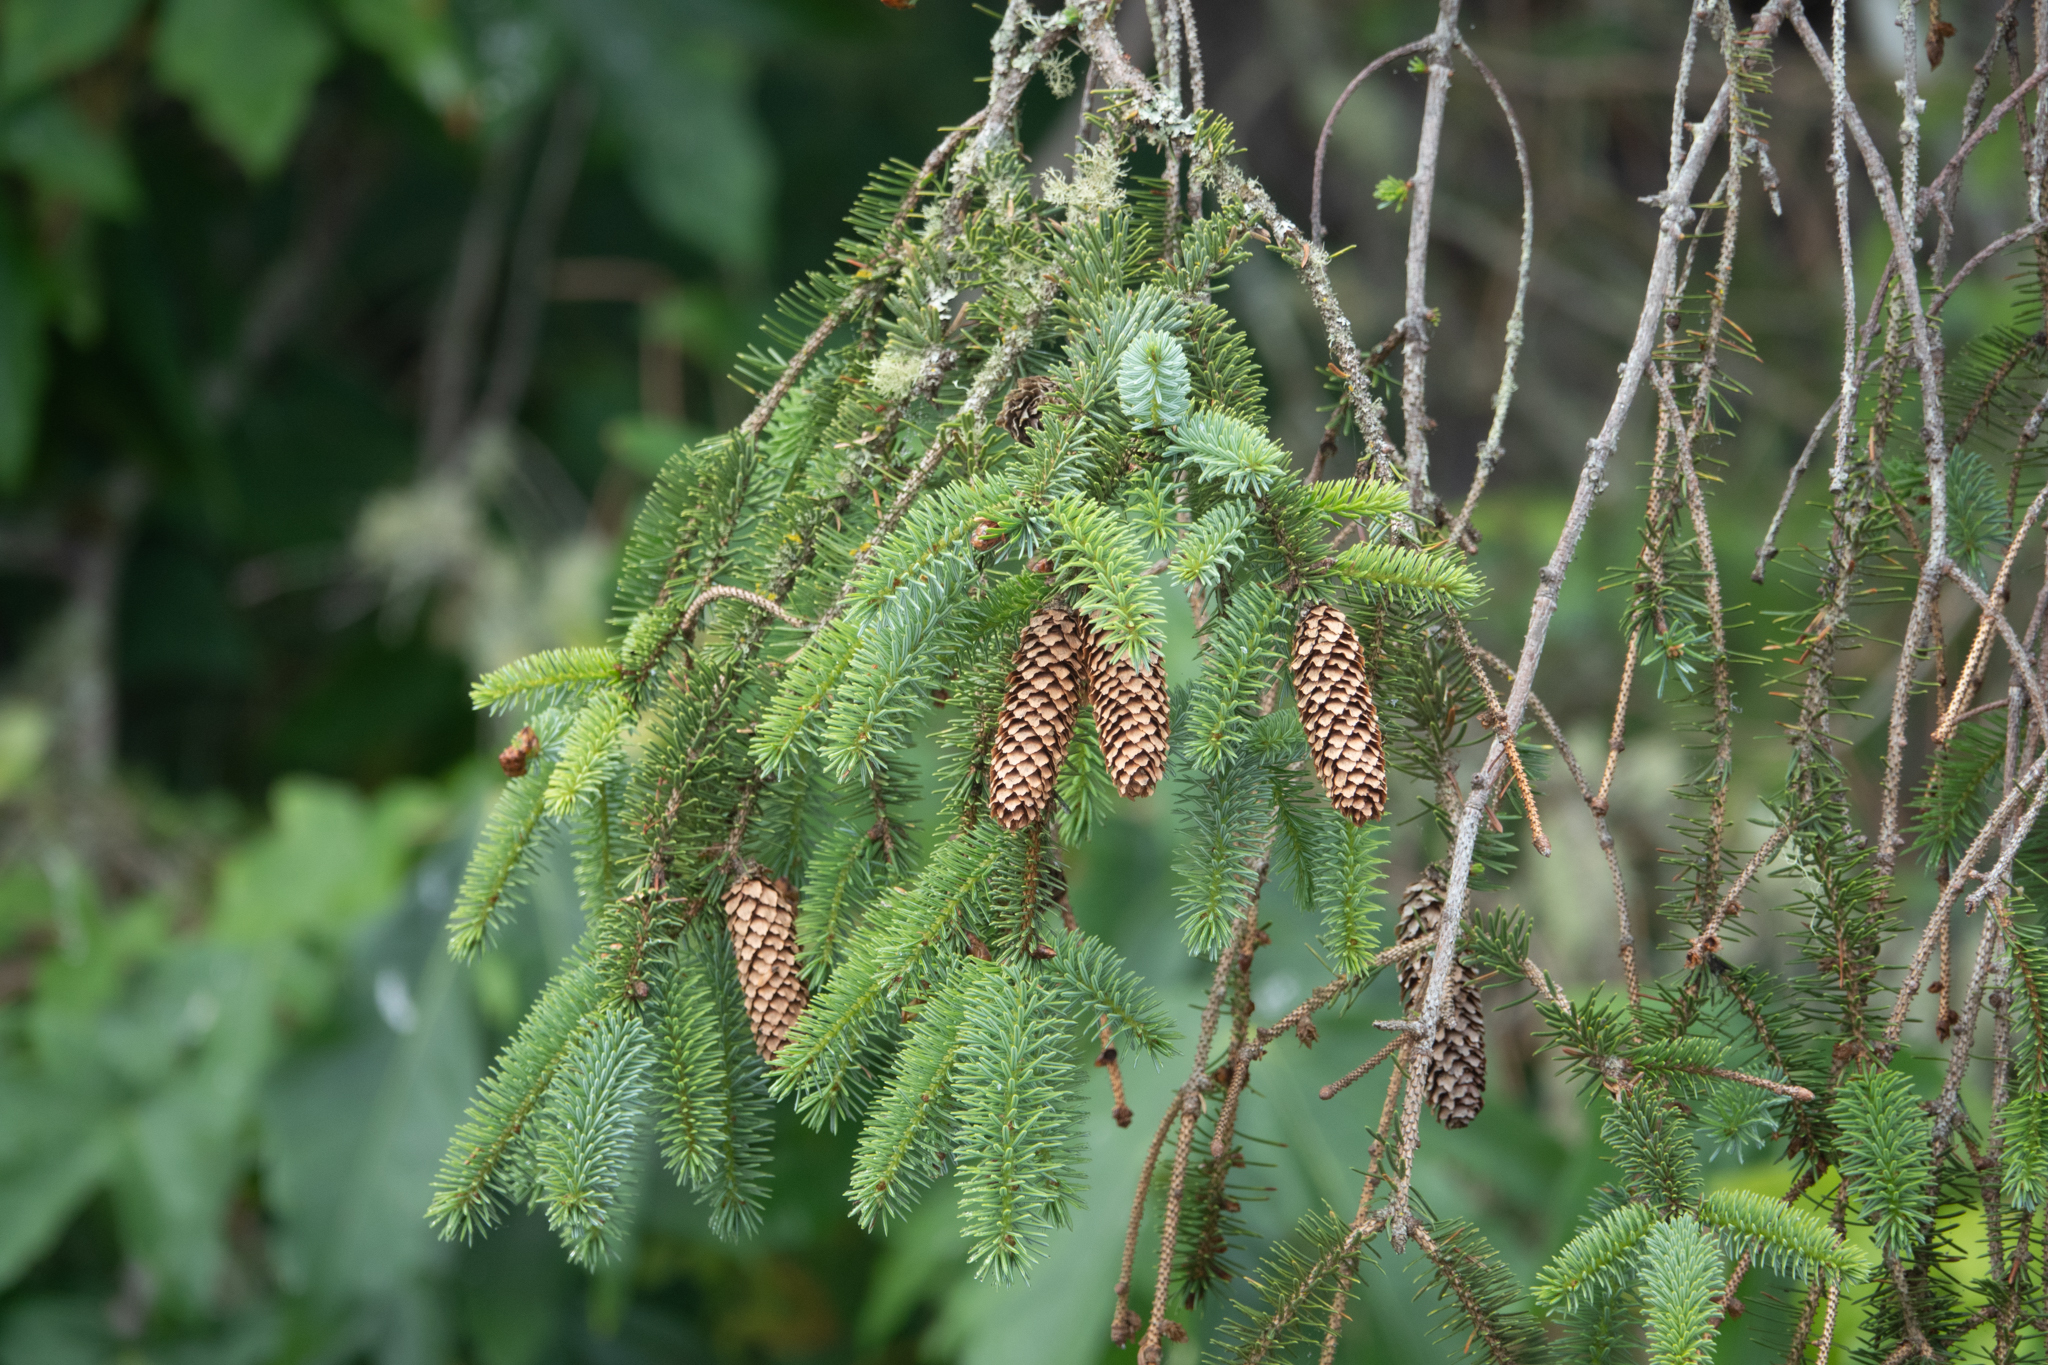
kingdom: Plantae
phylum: Tracheophyta
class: Pinopsida
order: Pinales
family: Pinaceae
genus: Picea
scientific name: Picea sitchensis
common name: Sitka spruce
